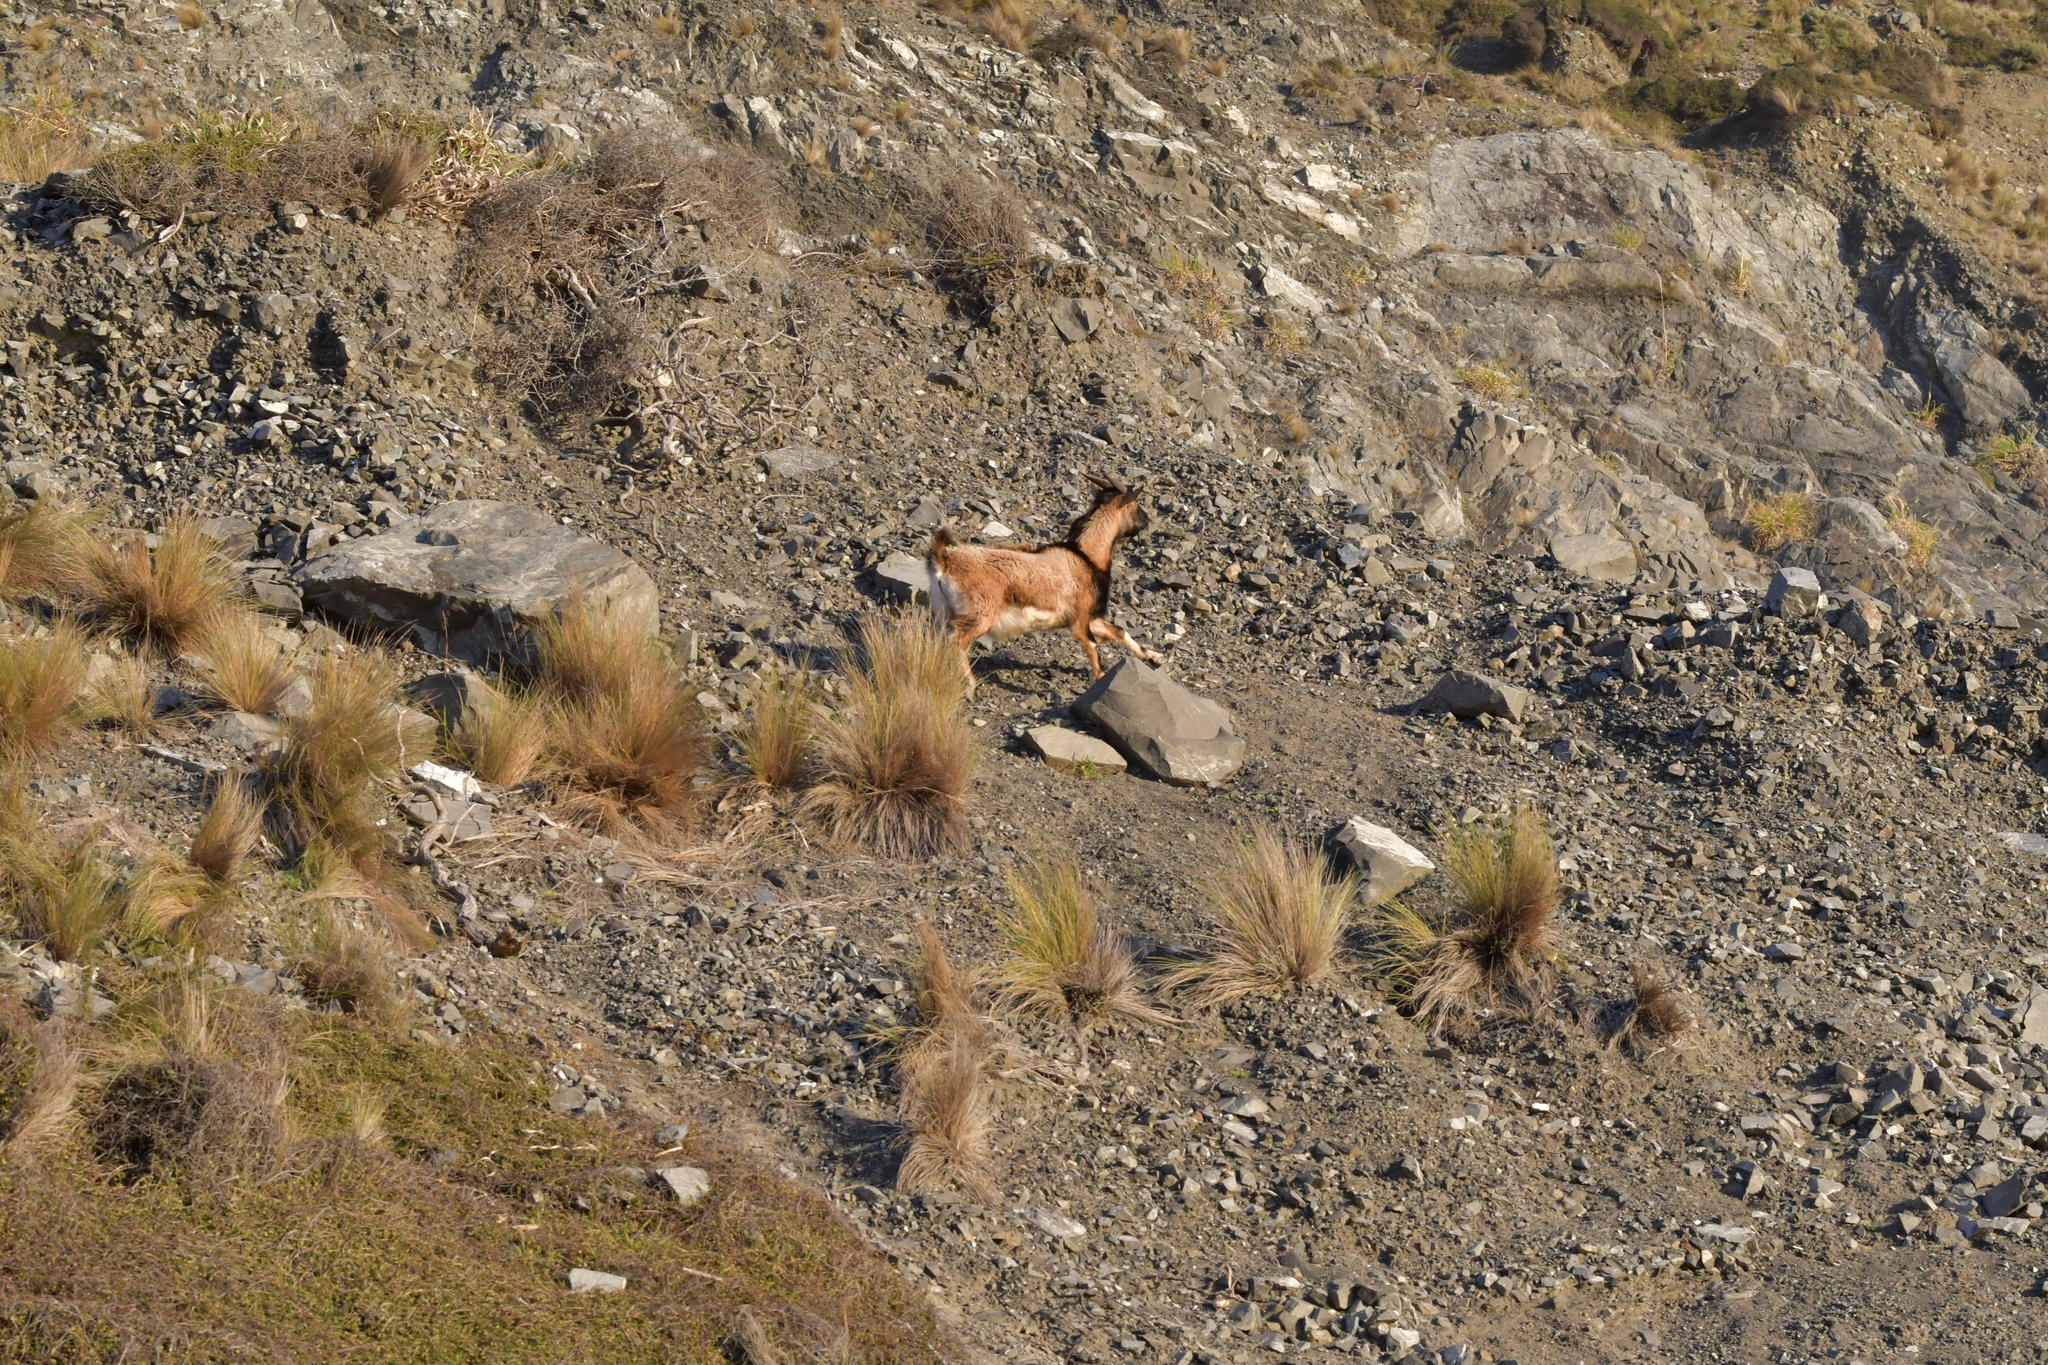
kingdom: Animalia
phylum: Chordata
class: Mammalia
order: Artiodactyla
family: Bovidae
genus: Capra
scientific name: Capra hircus
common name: Domestic goat
